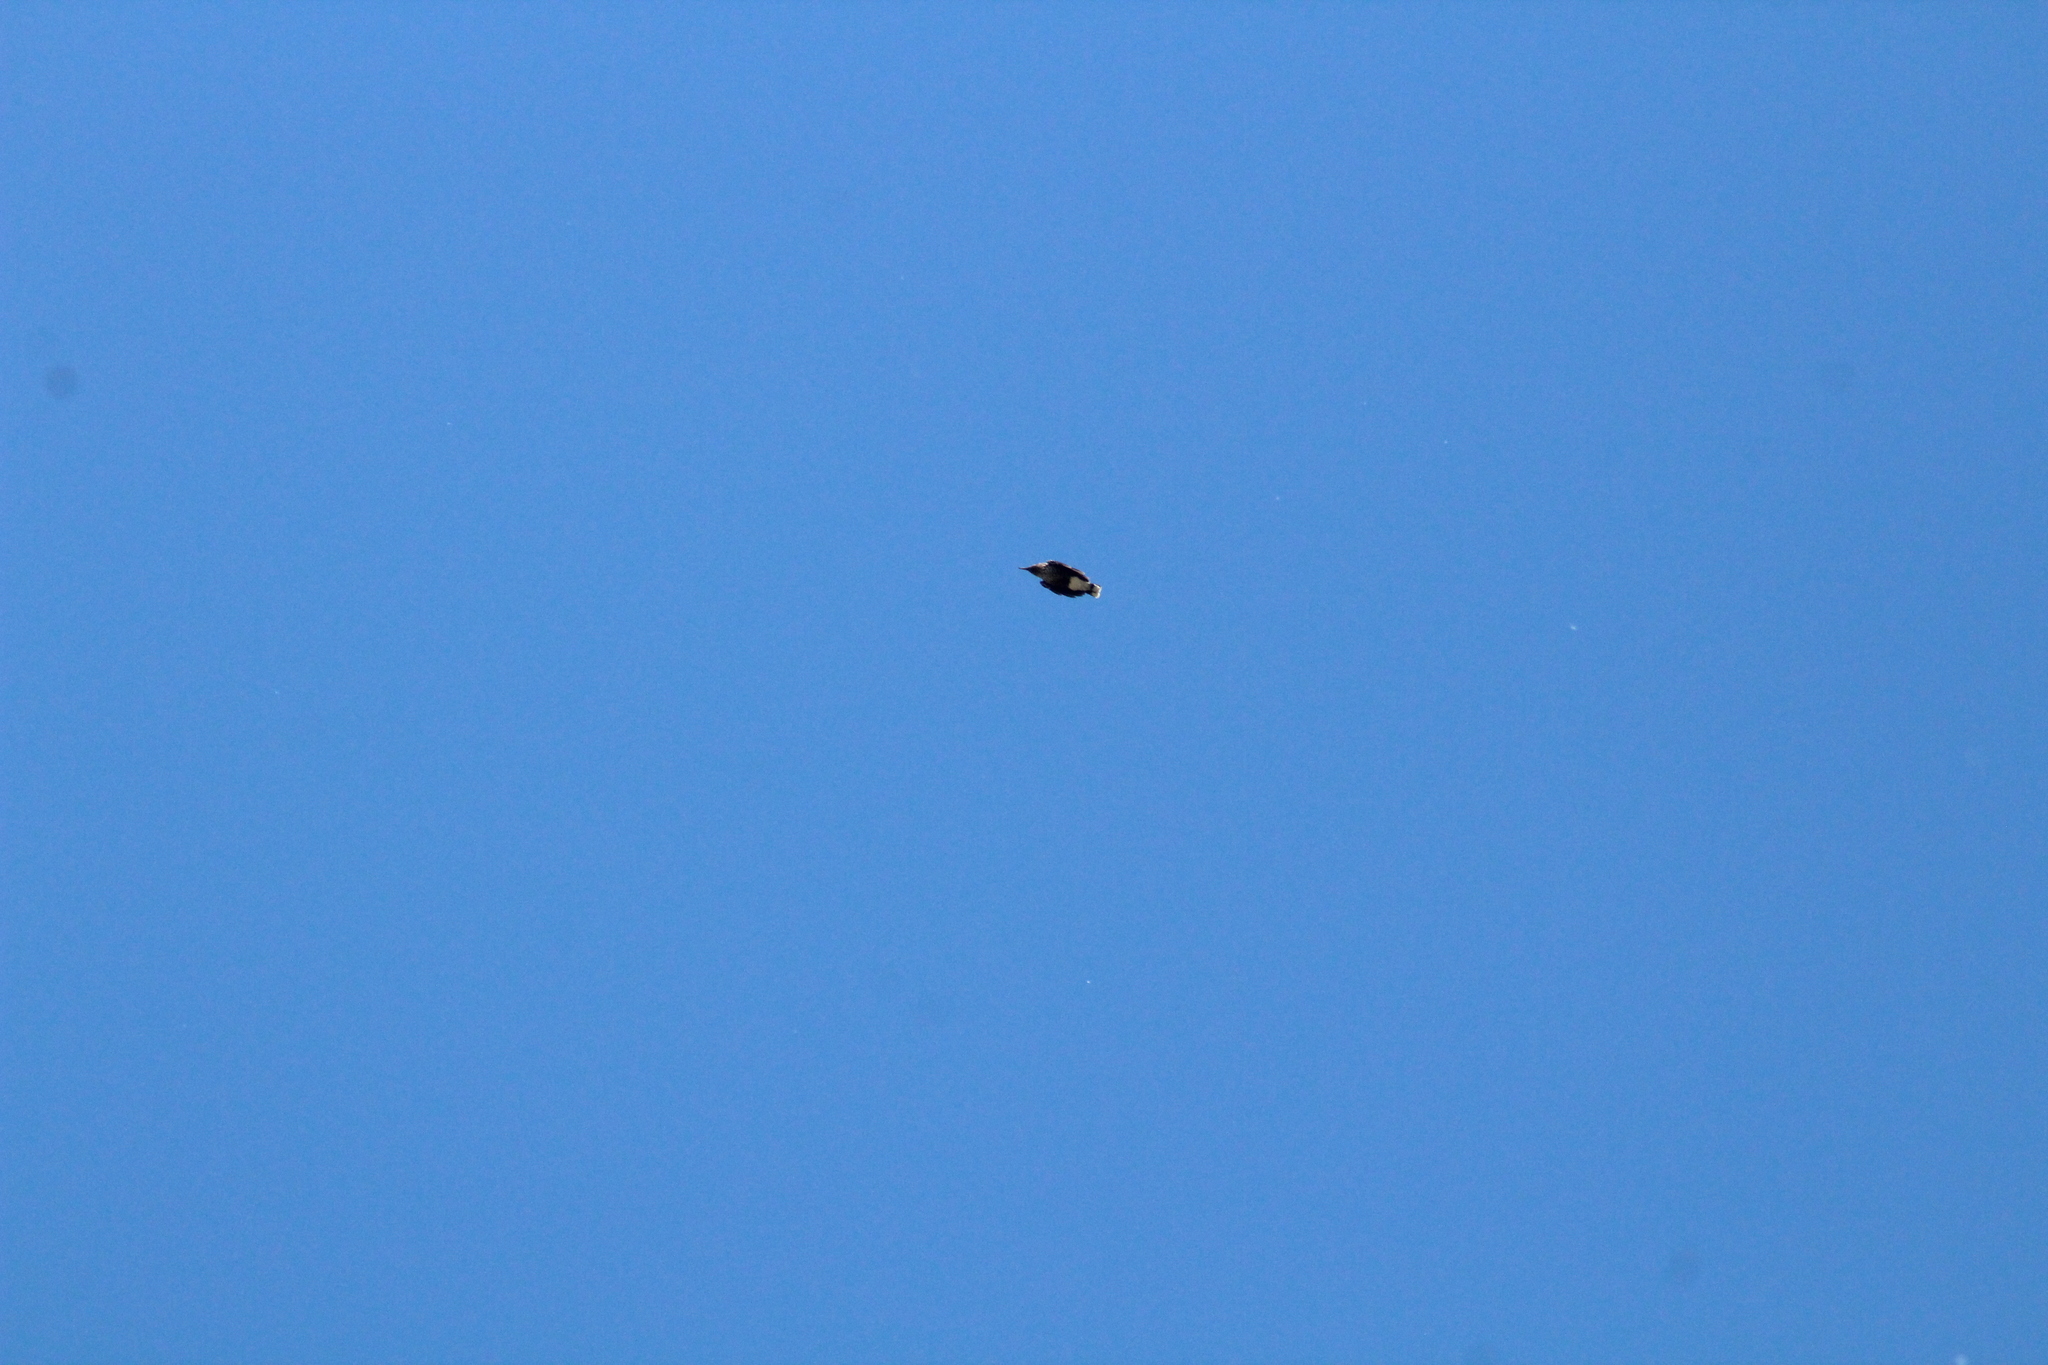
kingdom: Animalia
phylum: Chordata
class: Aves
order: Passeriformes
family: Corvidae
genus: Nucifraga
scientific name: Nucifraga caryocatactes
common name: Spotted nutcracker
